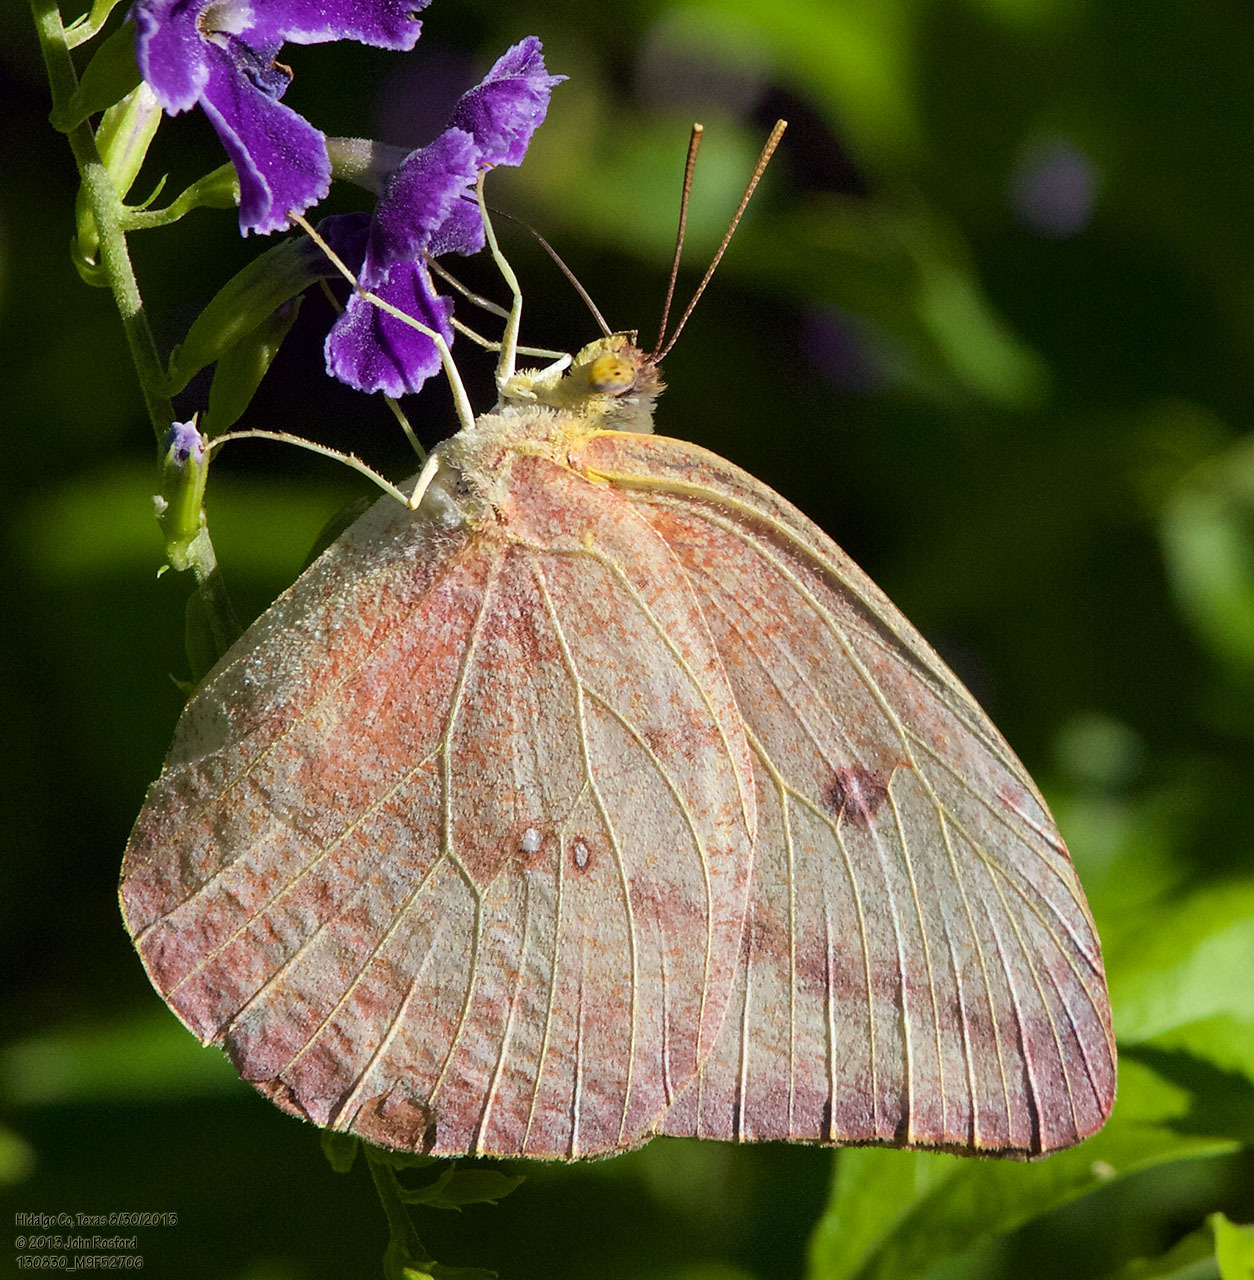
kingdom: Animalia
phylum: Arthropoda
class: Insecta
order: Lepidoptera
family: Pieridae
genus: Phoebis
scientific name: Phoebis agarithe
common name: Large orange sulphur
